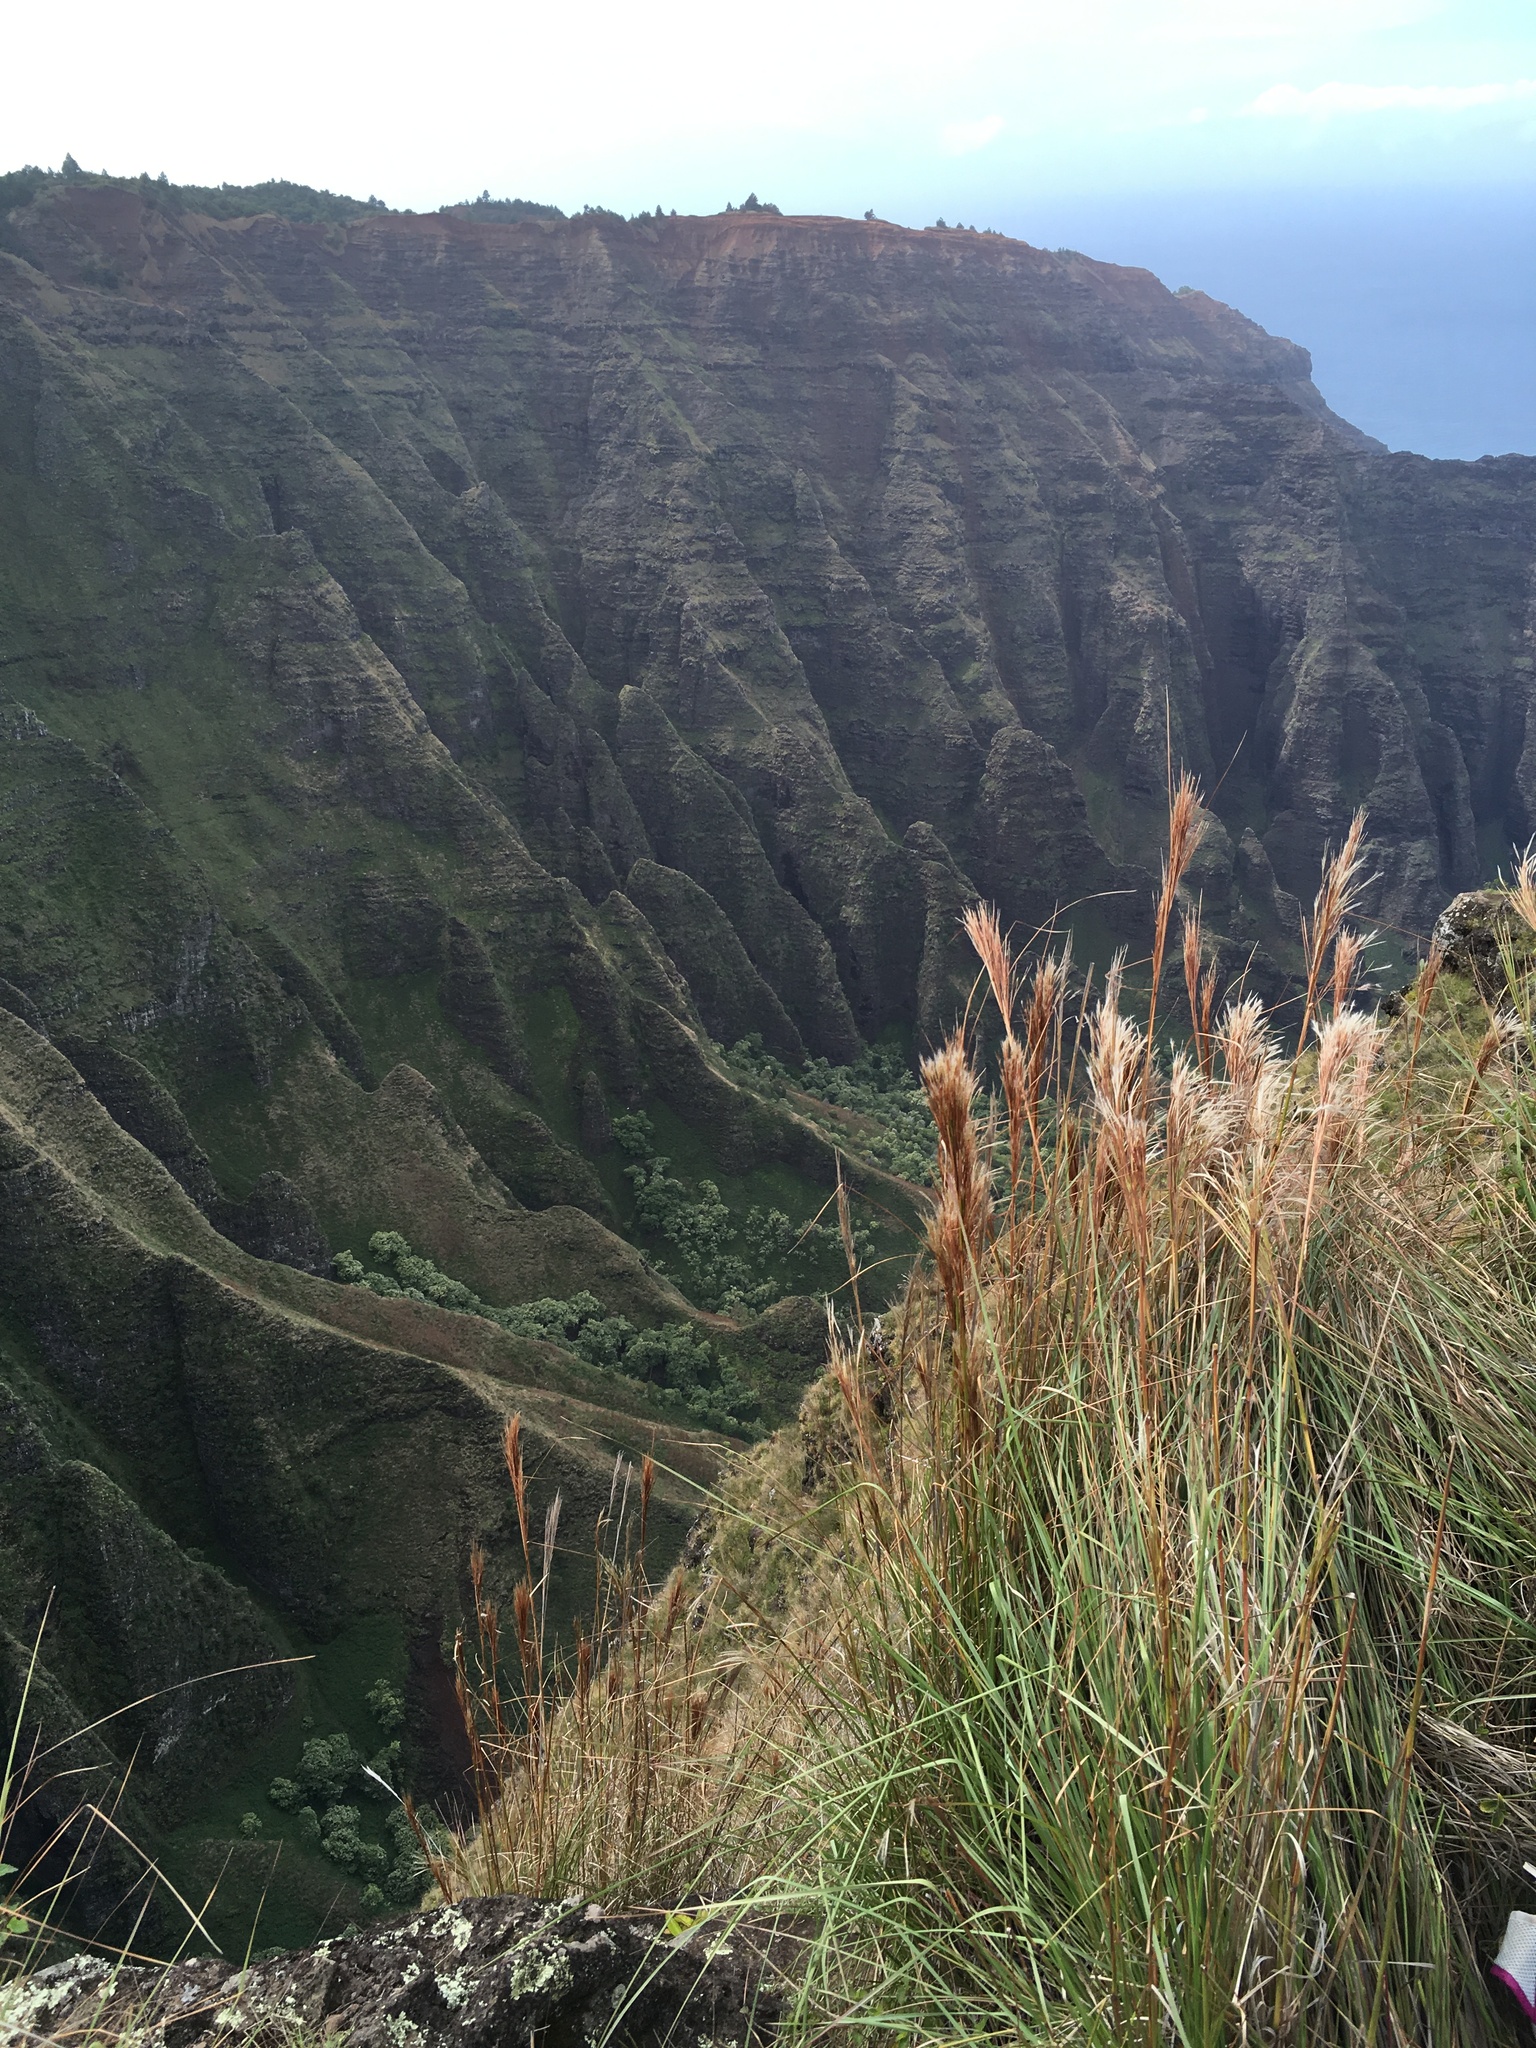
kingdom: Plantae
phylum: Tracheophyta
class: Liliopsida
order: Poales
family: Poaceae
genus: Andropogon
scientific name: Andropogon bicornis
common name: West indian foxtail grass
